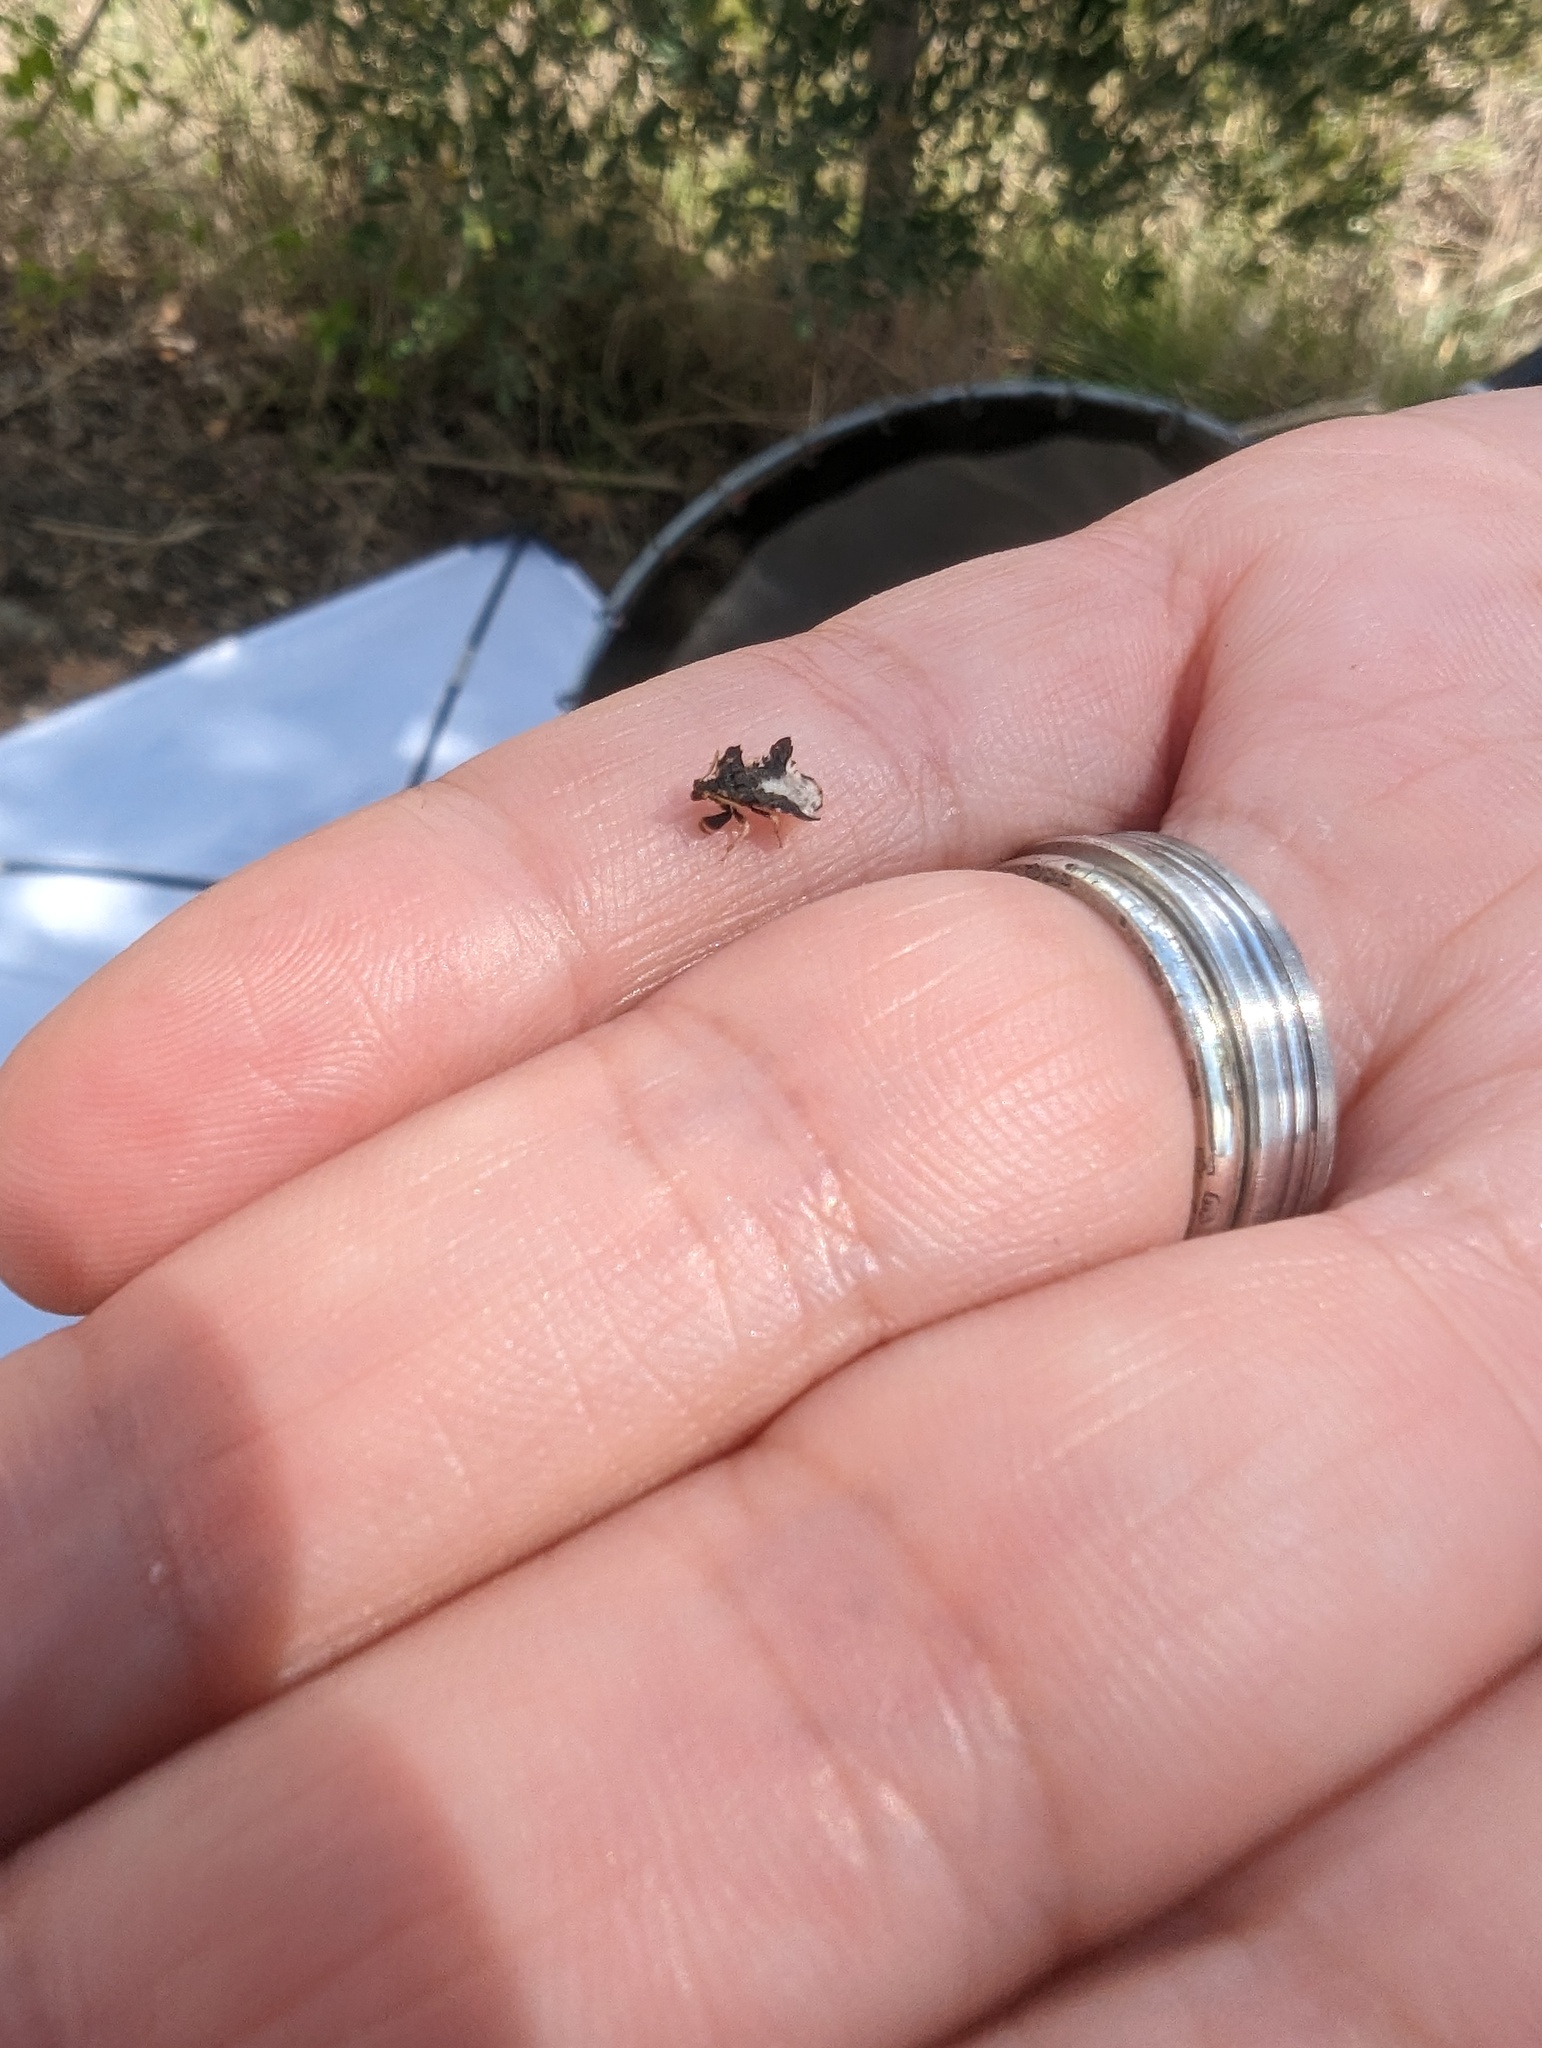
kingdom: Animalia
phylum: Arthropoda
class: Insecta
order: Hemiptera
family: Reduviidae
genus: Phymata
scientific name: Phymata monstrosa
